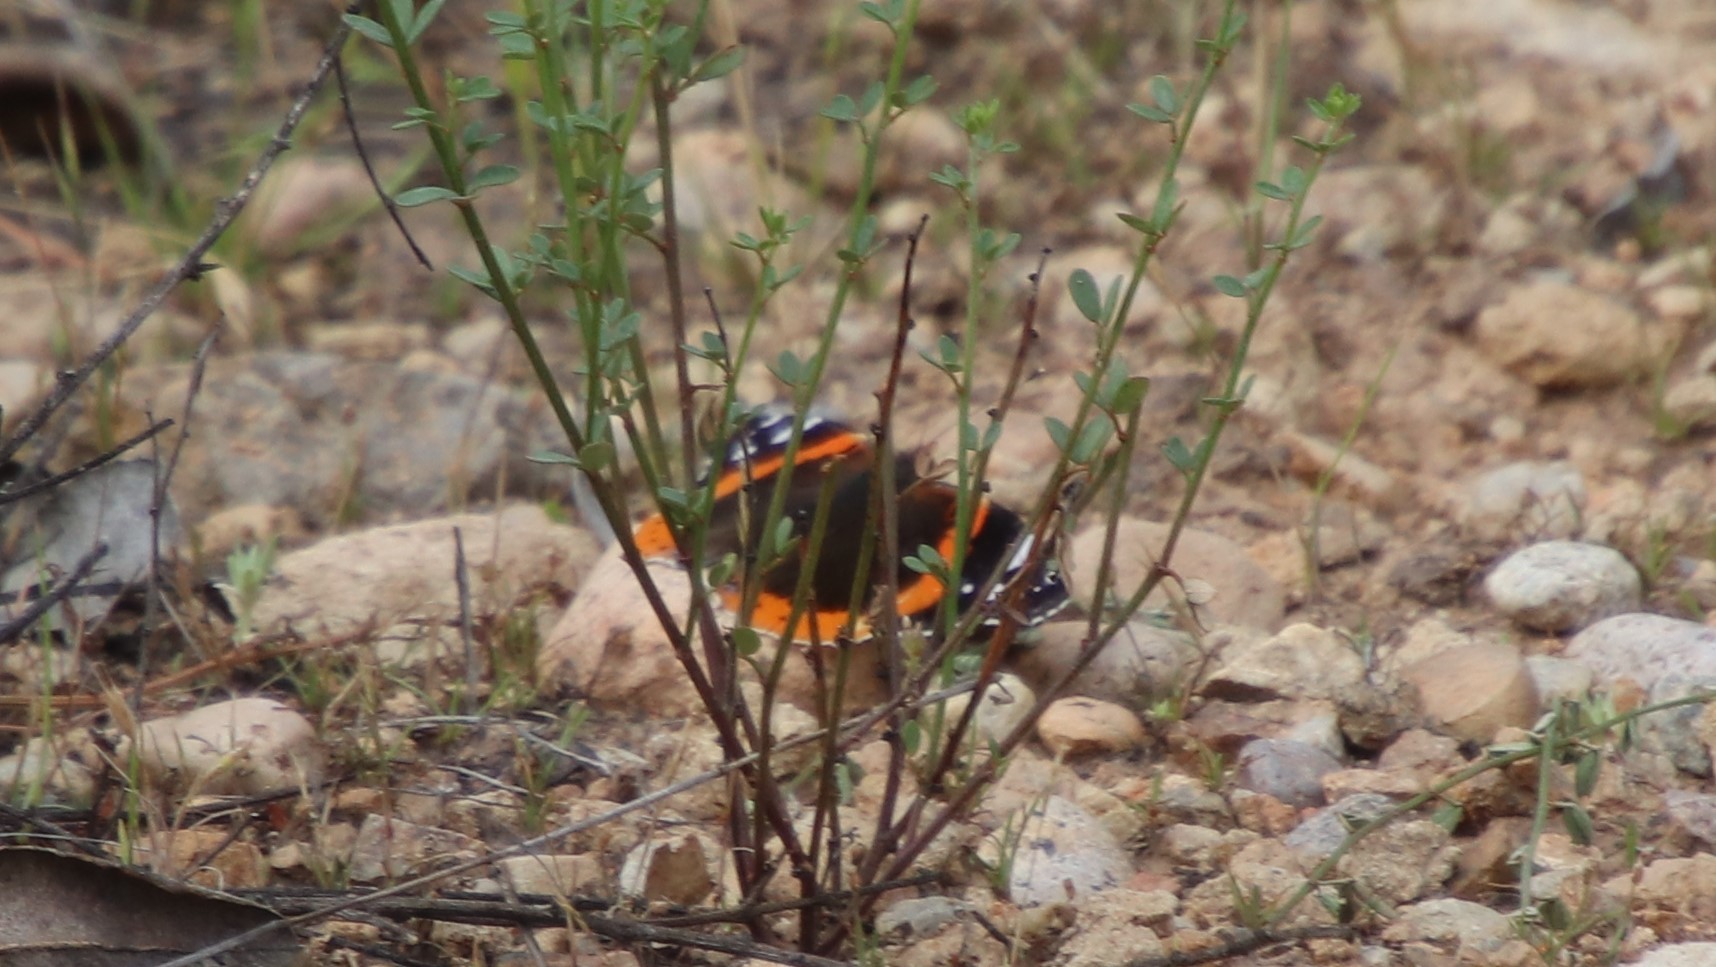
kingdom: Animalia
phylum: Arthropoda
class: Insecta
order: Lepidoptera
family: Nymphalidae
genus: Vanessa
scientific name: Vanessa atalanta
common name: Red admiral
